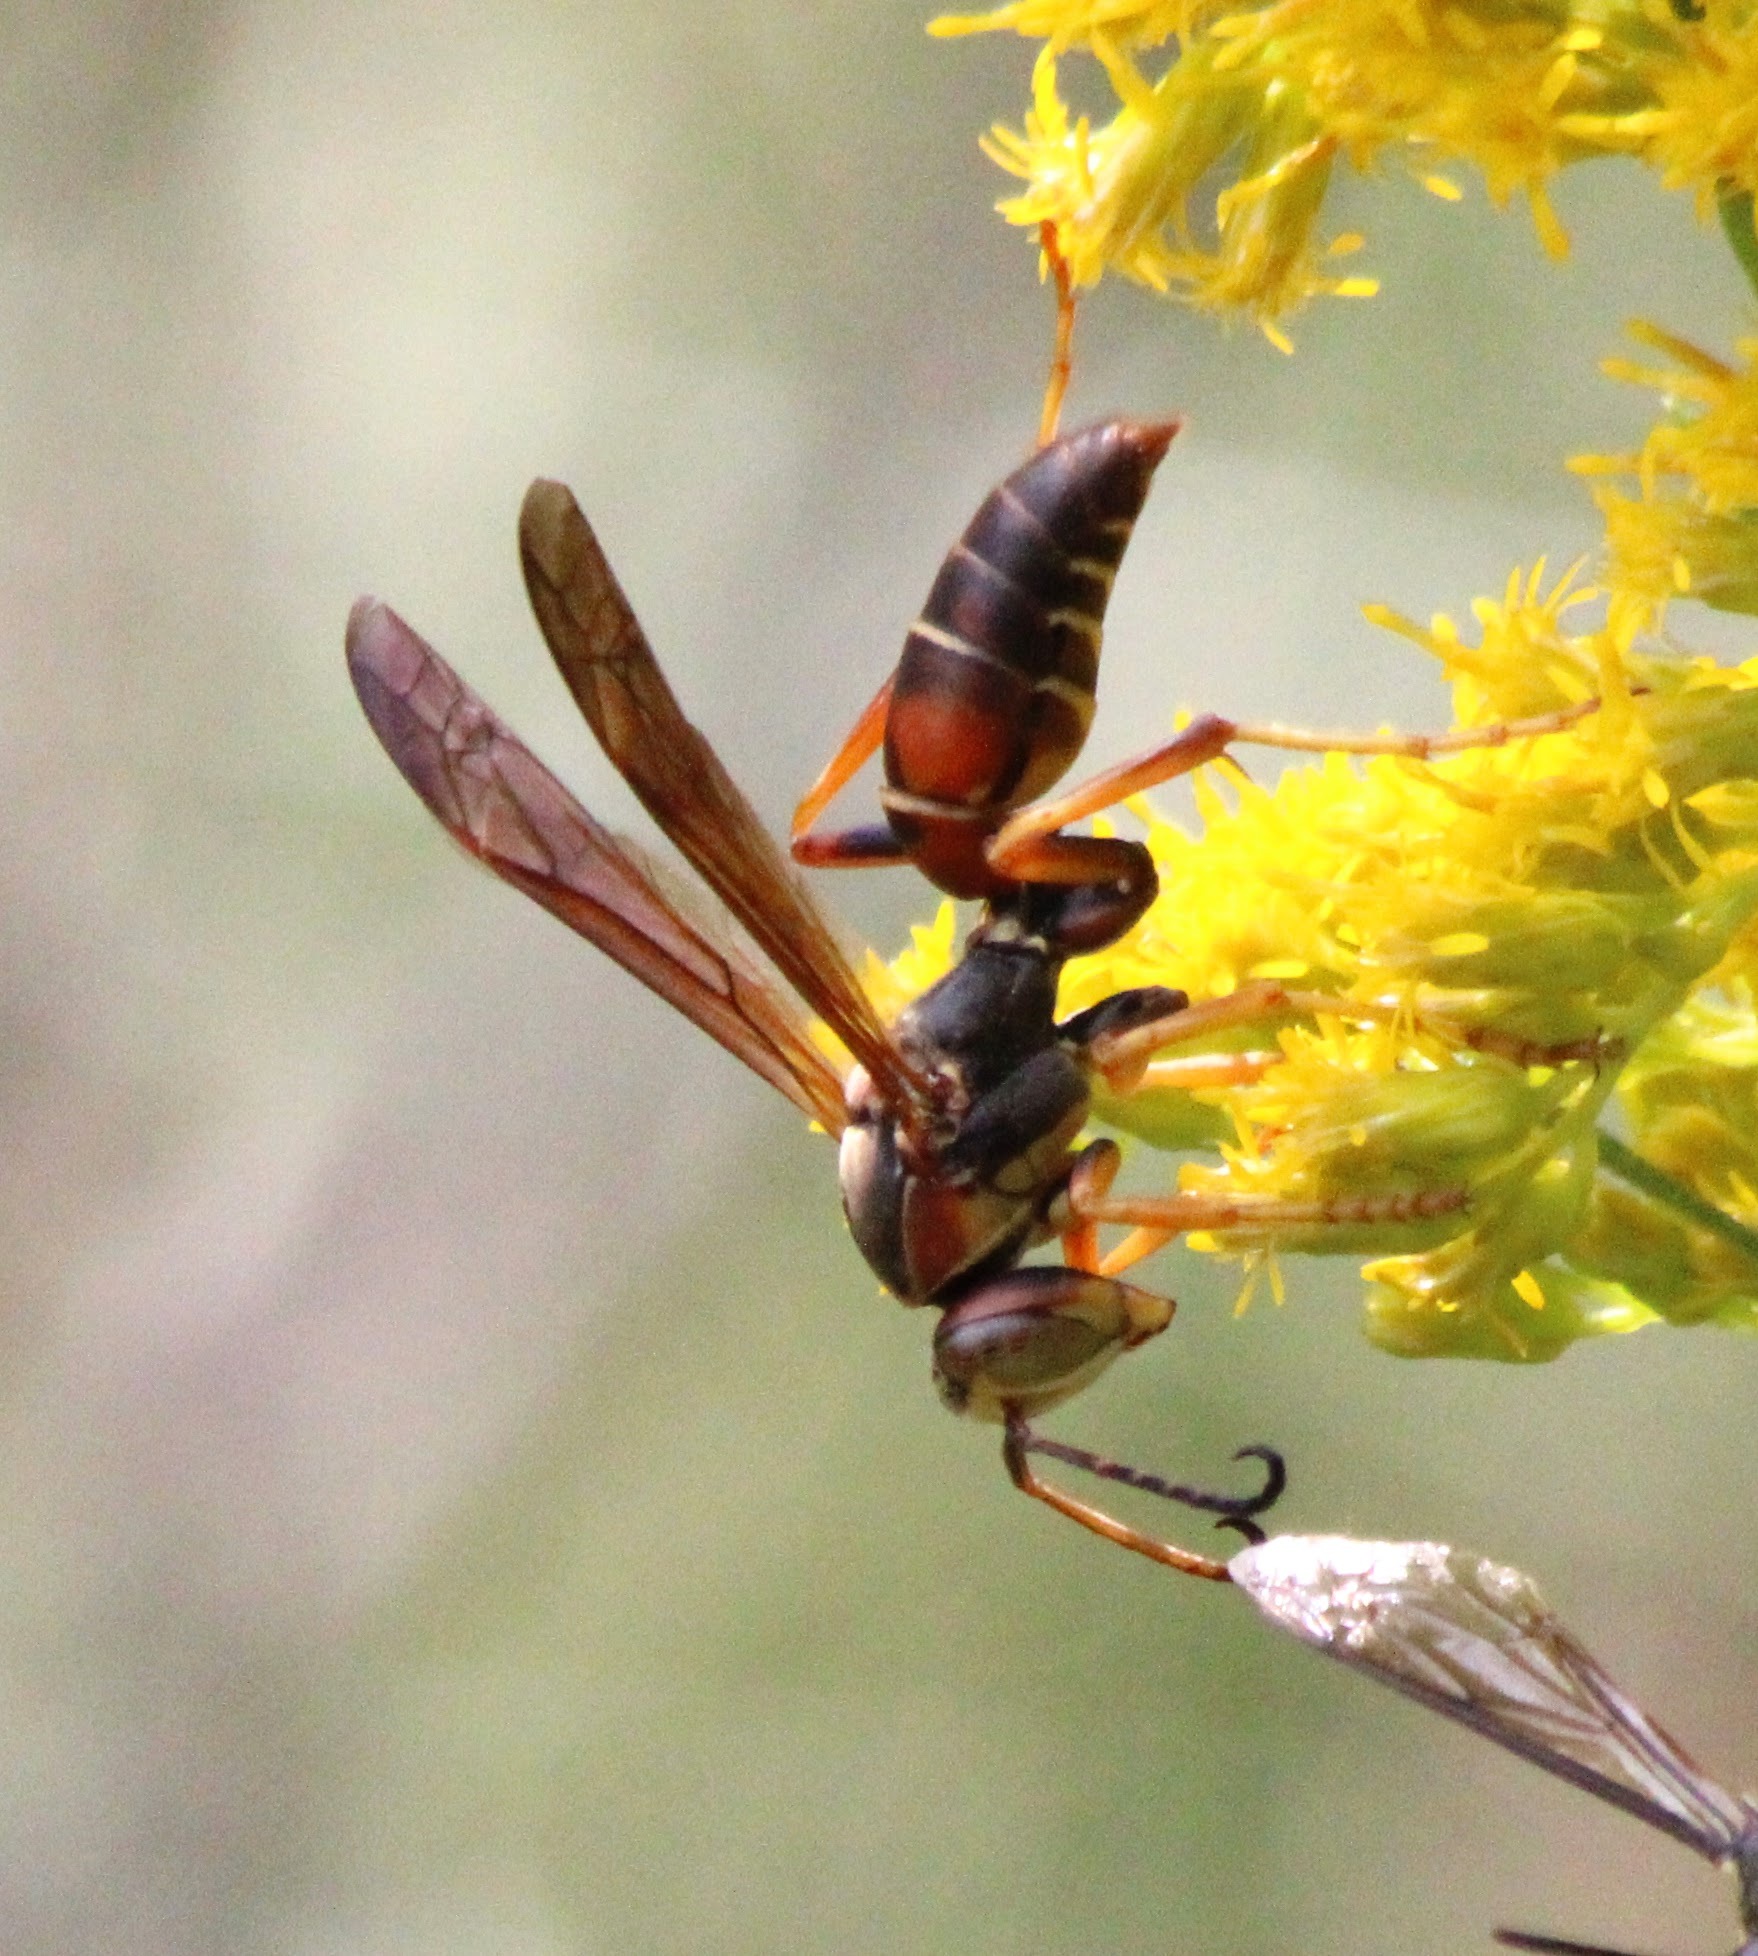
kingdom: Animalia
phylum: Arthropoda
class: Insecta
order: Hymenoptera
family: Eumenidae
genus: Polistes
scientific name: Polistes fuscatus
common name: Dark paper wasp
